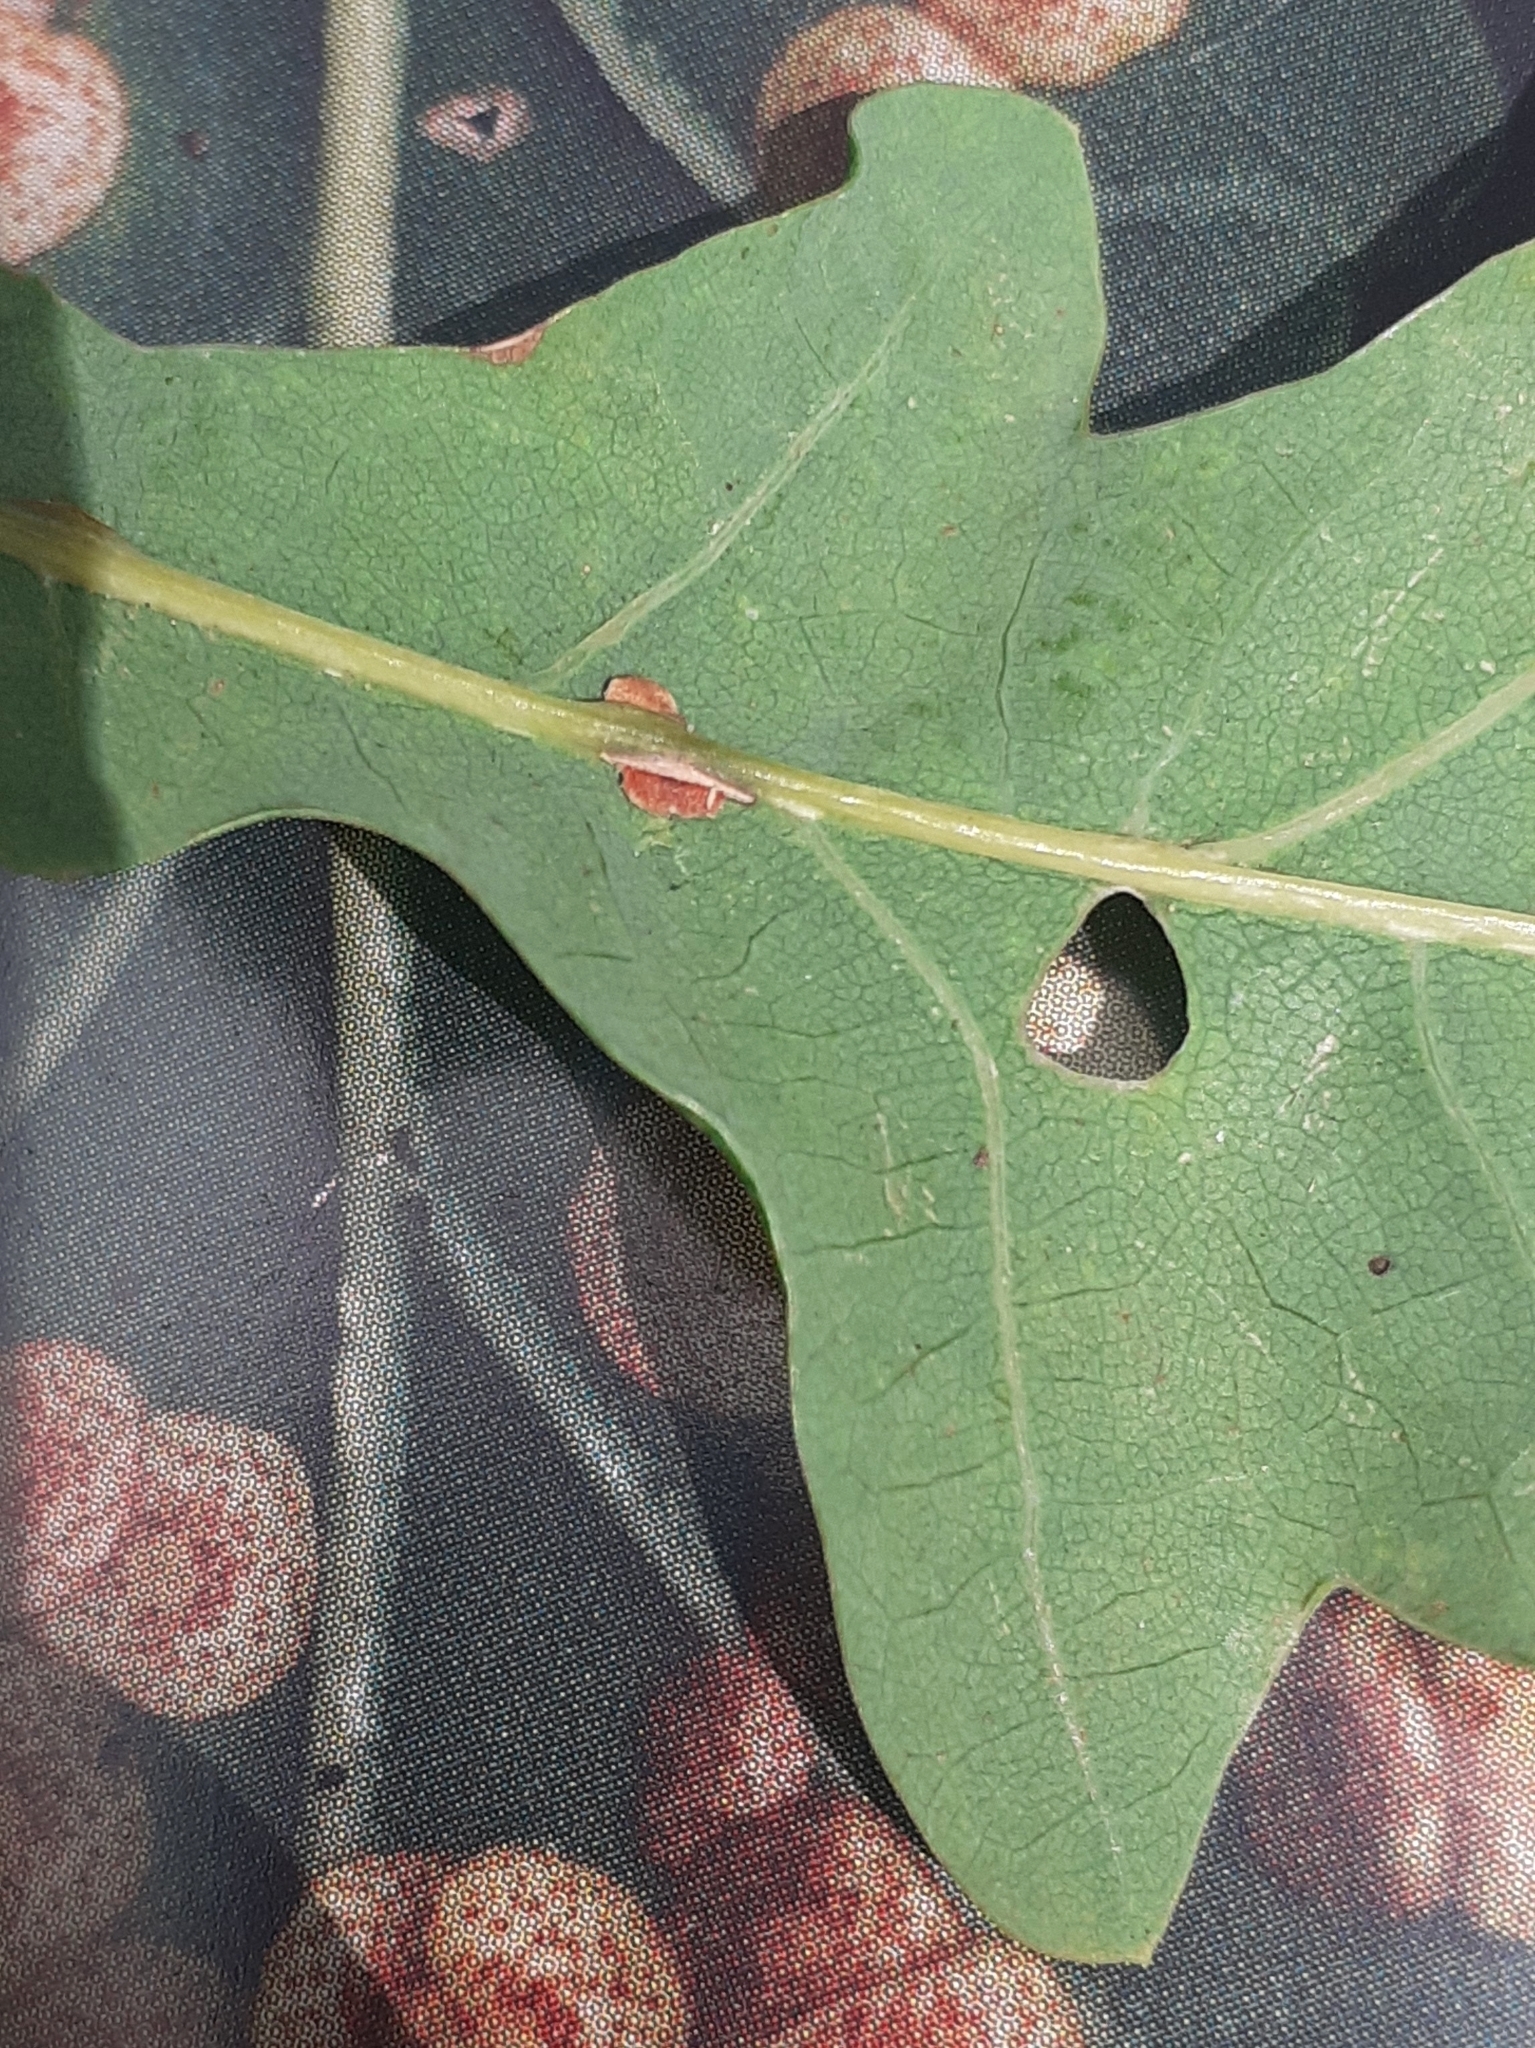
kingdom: Animalia
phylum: Arthropoda
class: Insecta
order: Hymenoptera
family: Cynipidae
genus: Neuroterus
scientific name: Neuroterus anthracinus
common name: Oyster gall
